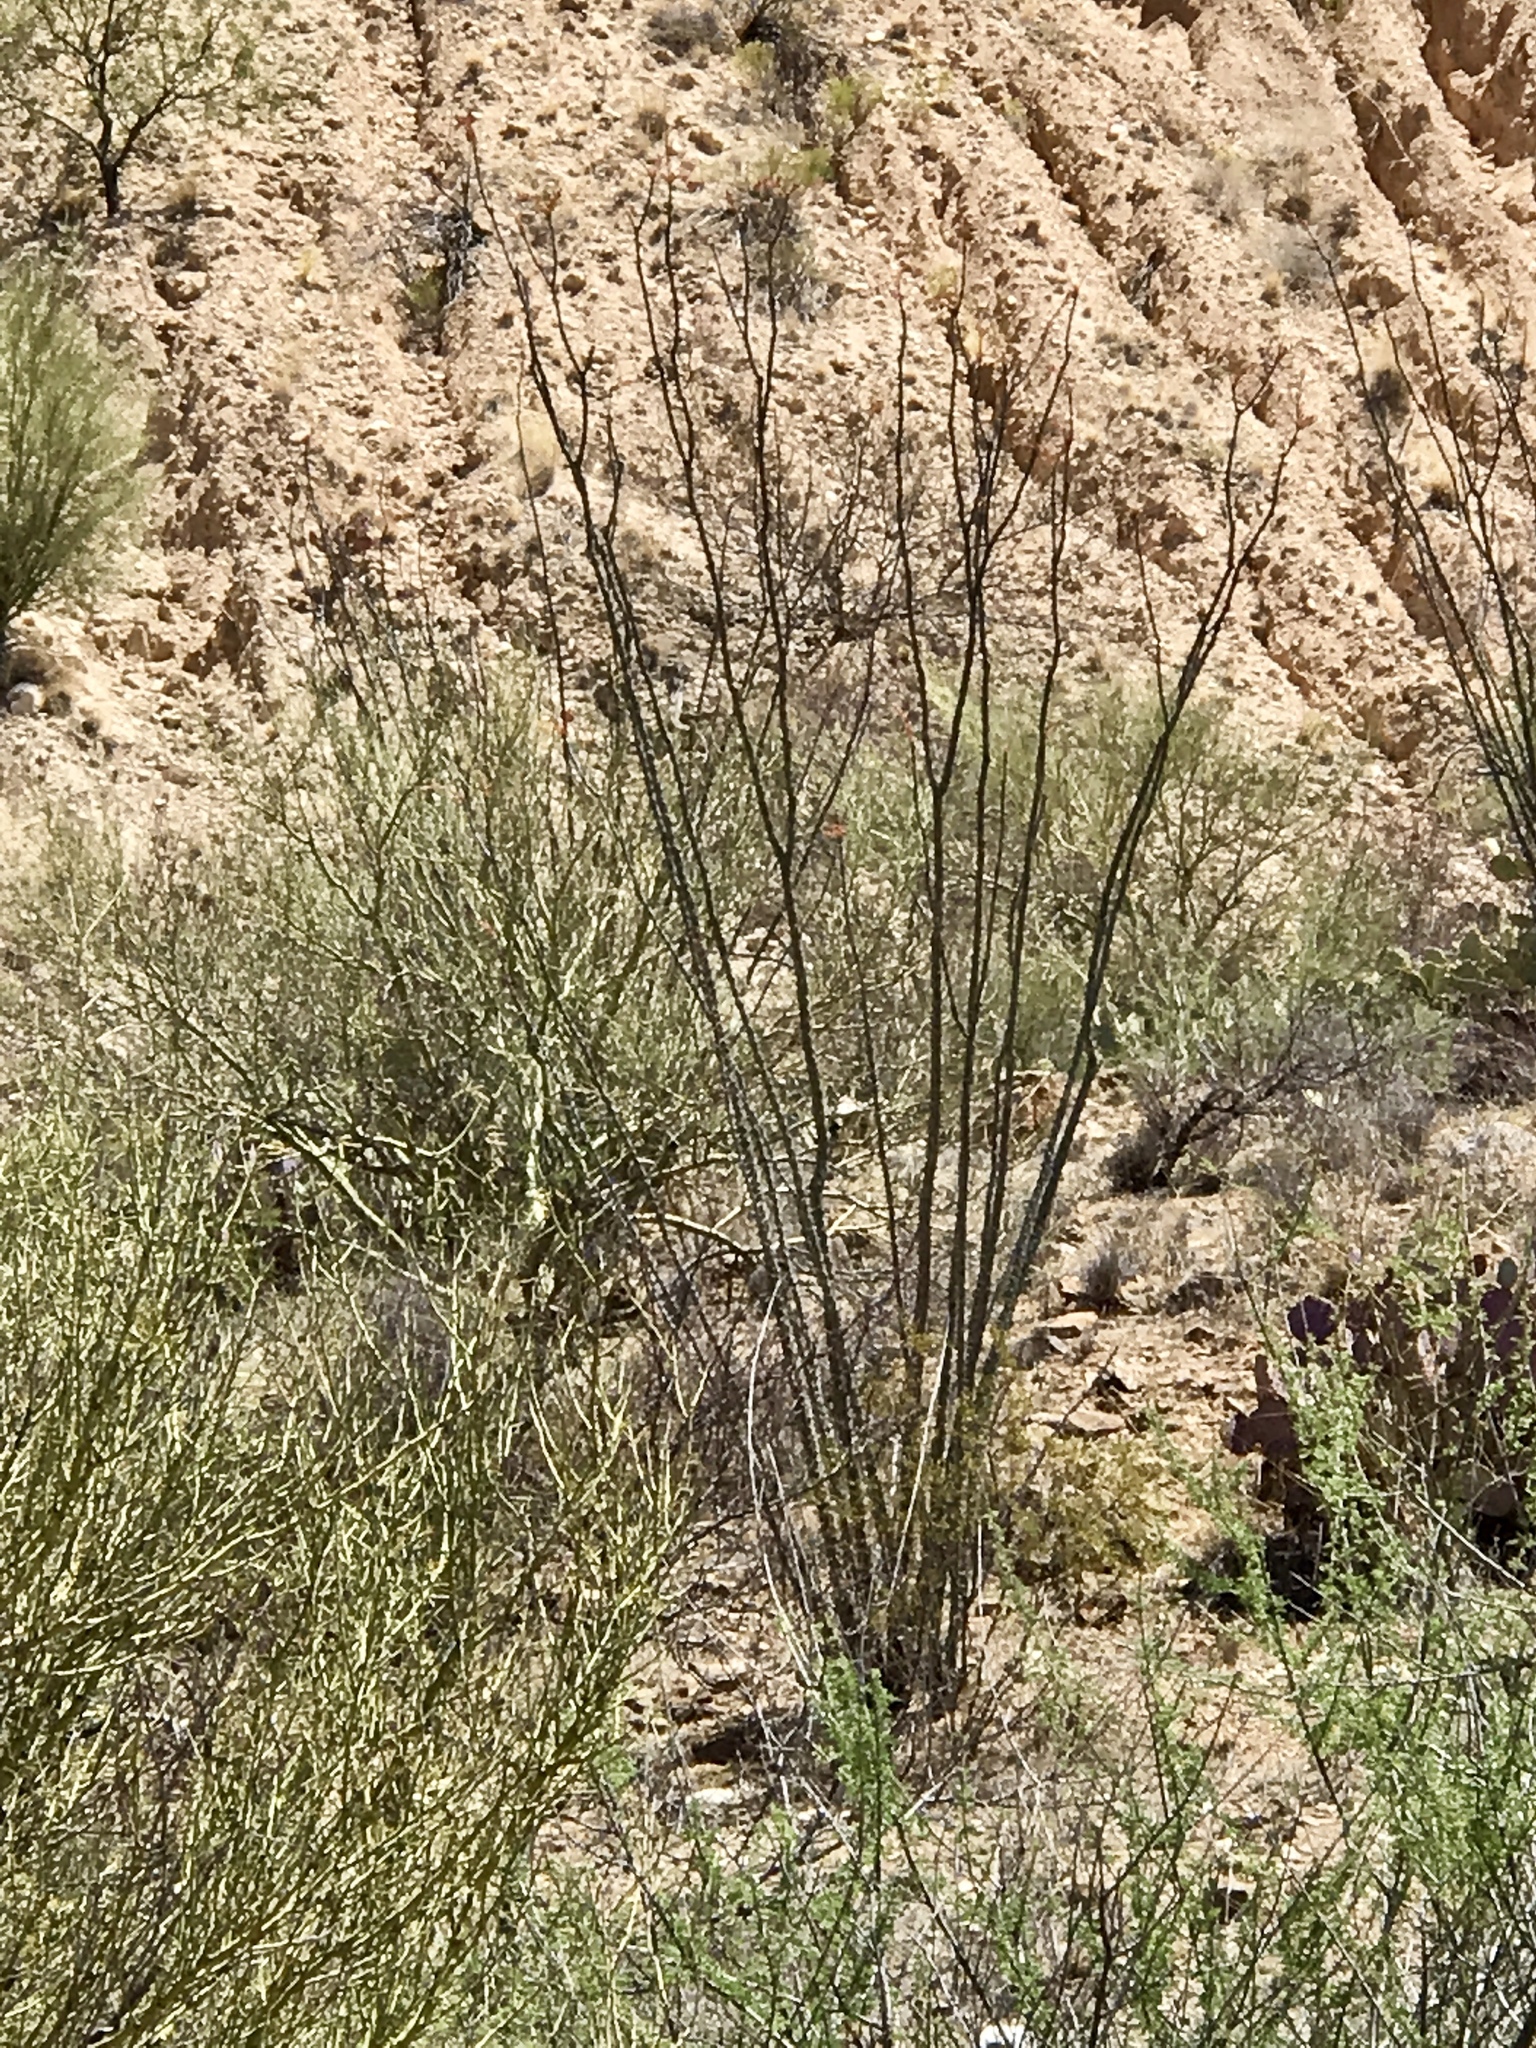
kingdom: Plantae
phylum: Tracheophyta
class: Magnoliopsida
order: Ericales
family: Fouquieriaceae
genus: Fouquieria
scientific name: Fouquieria splendens
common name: Vine-cactus
